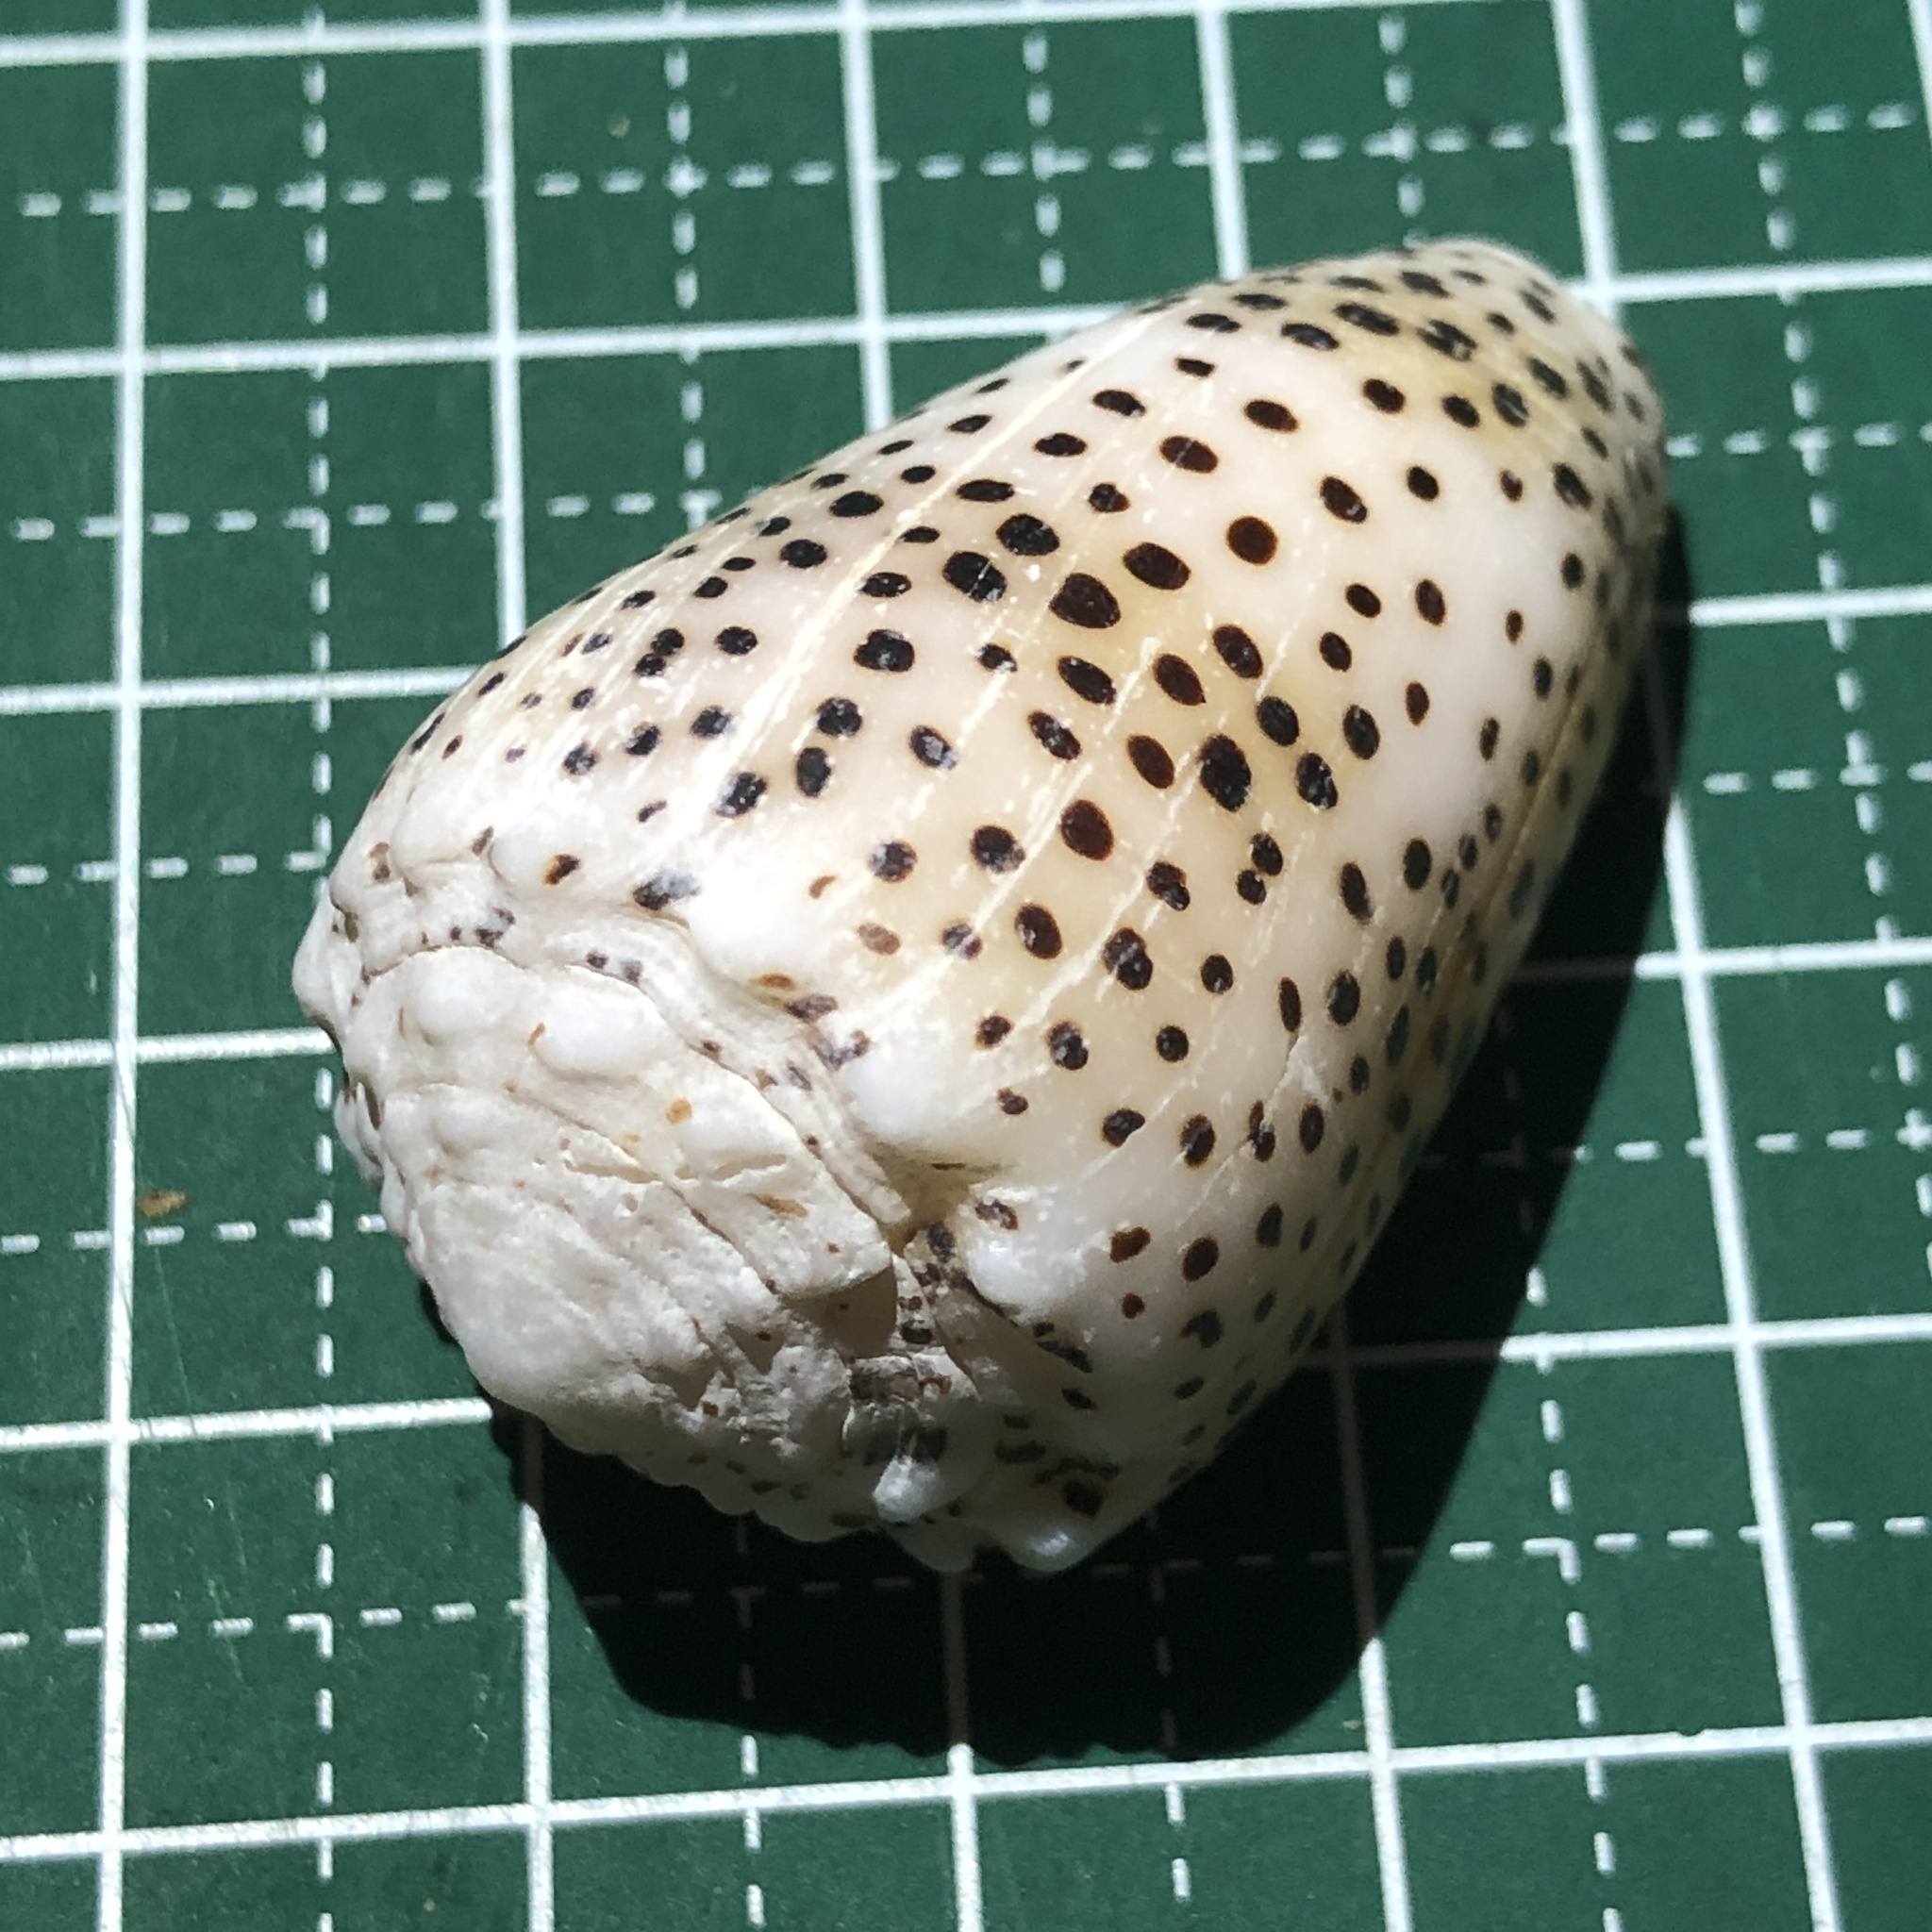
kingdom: Animalia
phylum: Mollusca
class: Gastropoda
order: Neogastropoda
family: Conidae
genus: Conus
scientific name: Conus pulicarius
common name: Flea-bite cone
